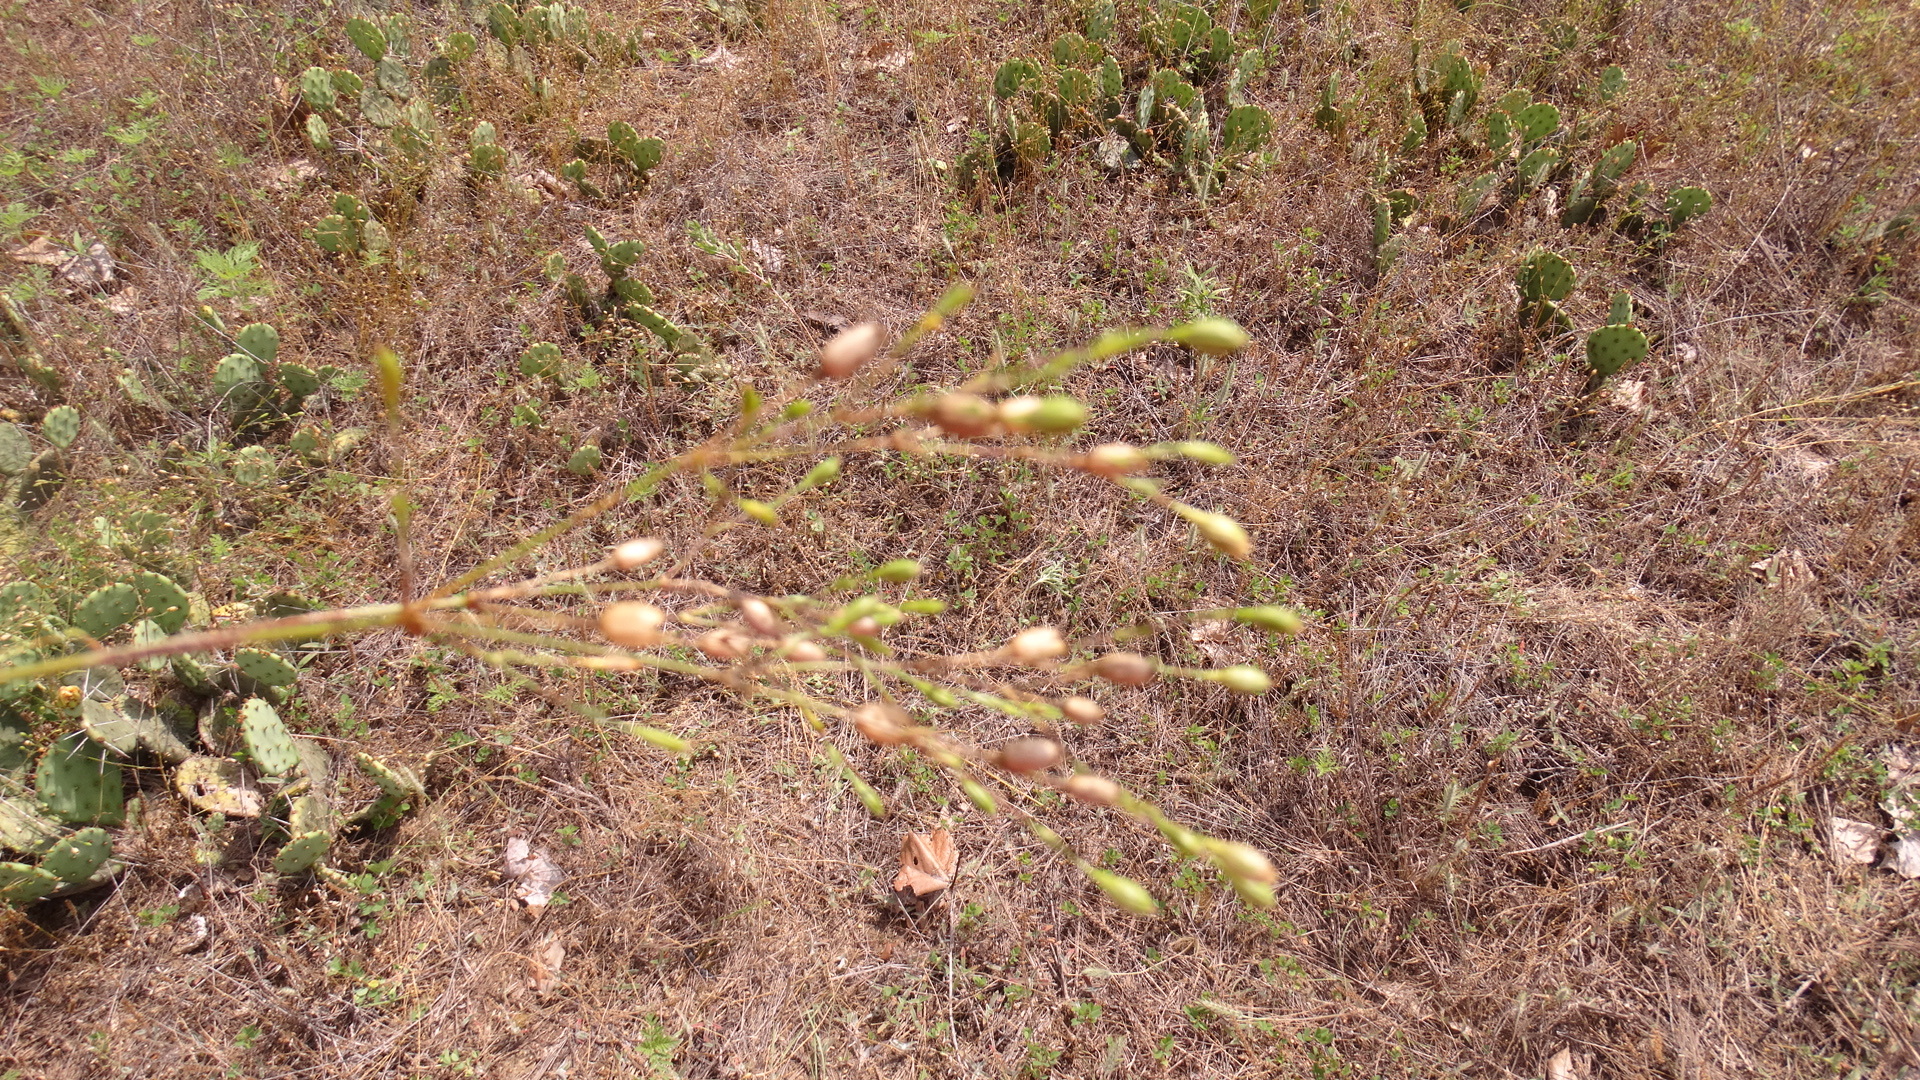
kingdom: Plantae
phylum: Tracheophyta
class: Magnoliopsida
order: Caryophyllales
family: Caryophyllaceae
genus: Silene
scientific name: Silene antirrhina
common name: Sleepy catchfly
